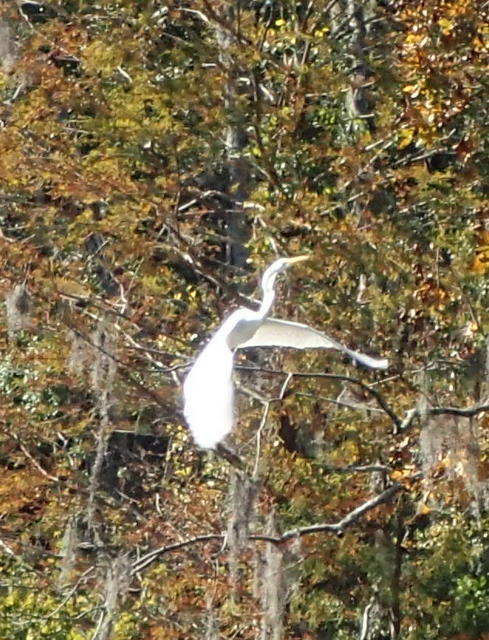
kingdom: Animalia
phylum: Chordata
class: Aves
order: Pelecaniformes
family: Ardeidae
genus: Ardea
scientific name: Ardea alba
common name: Great egret
